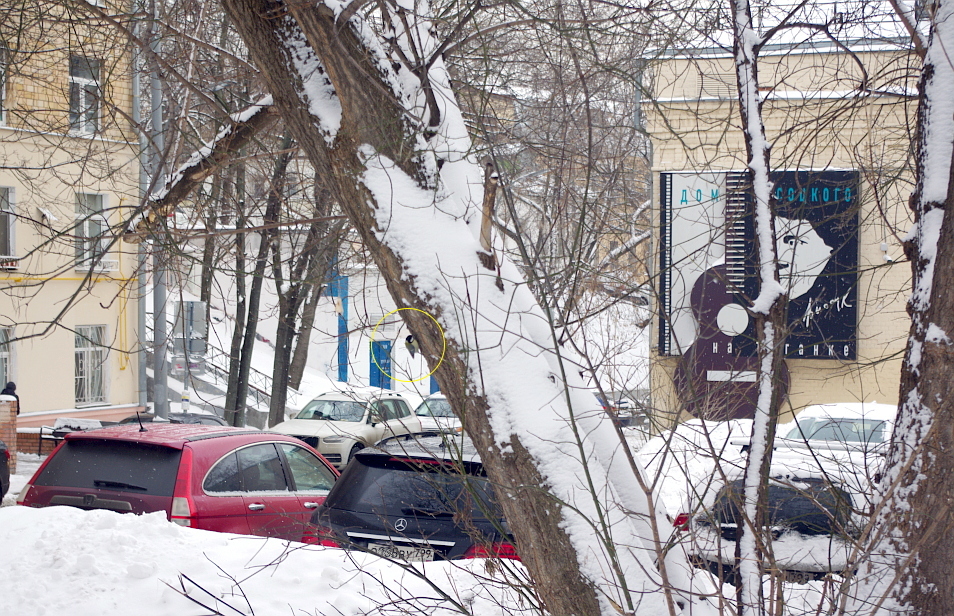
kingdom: Animalia
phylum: Chordata
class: Aves
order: Passeriformes
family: Paridae
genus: Parus
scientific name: Parus major
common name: Great tit
